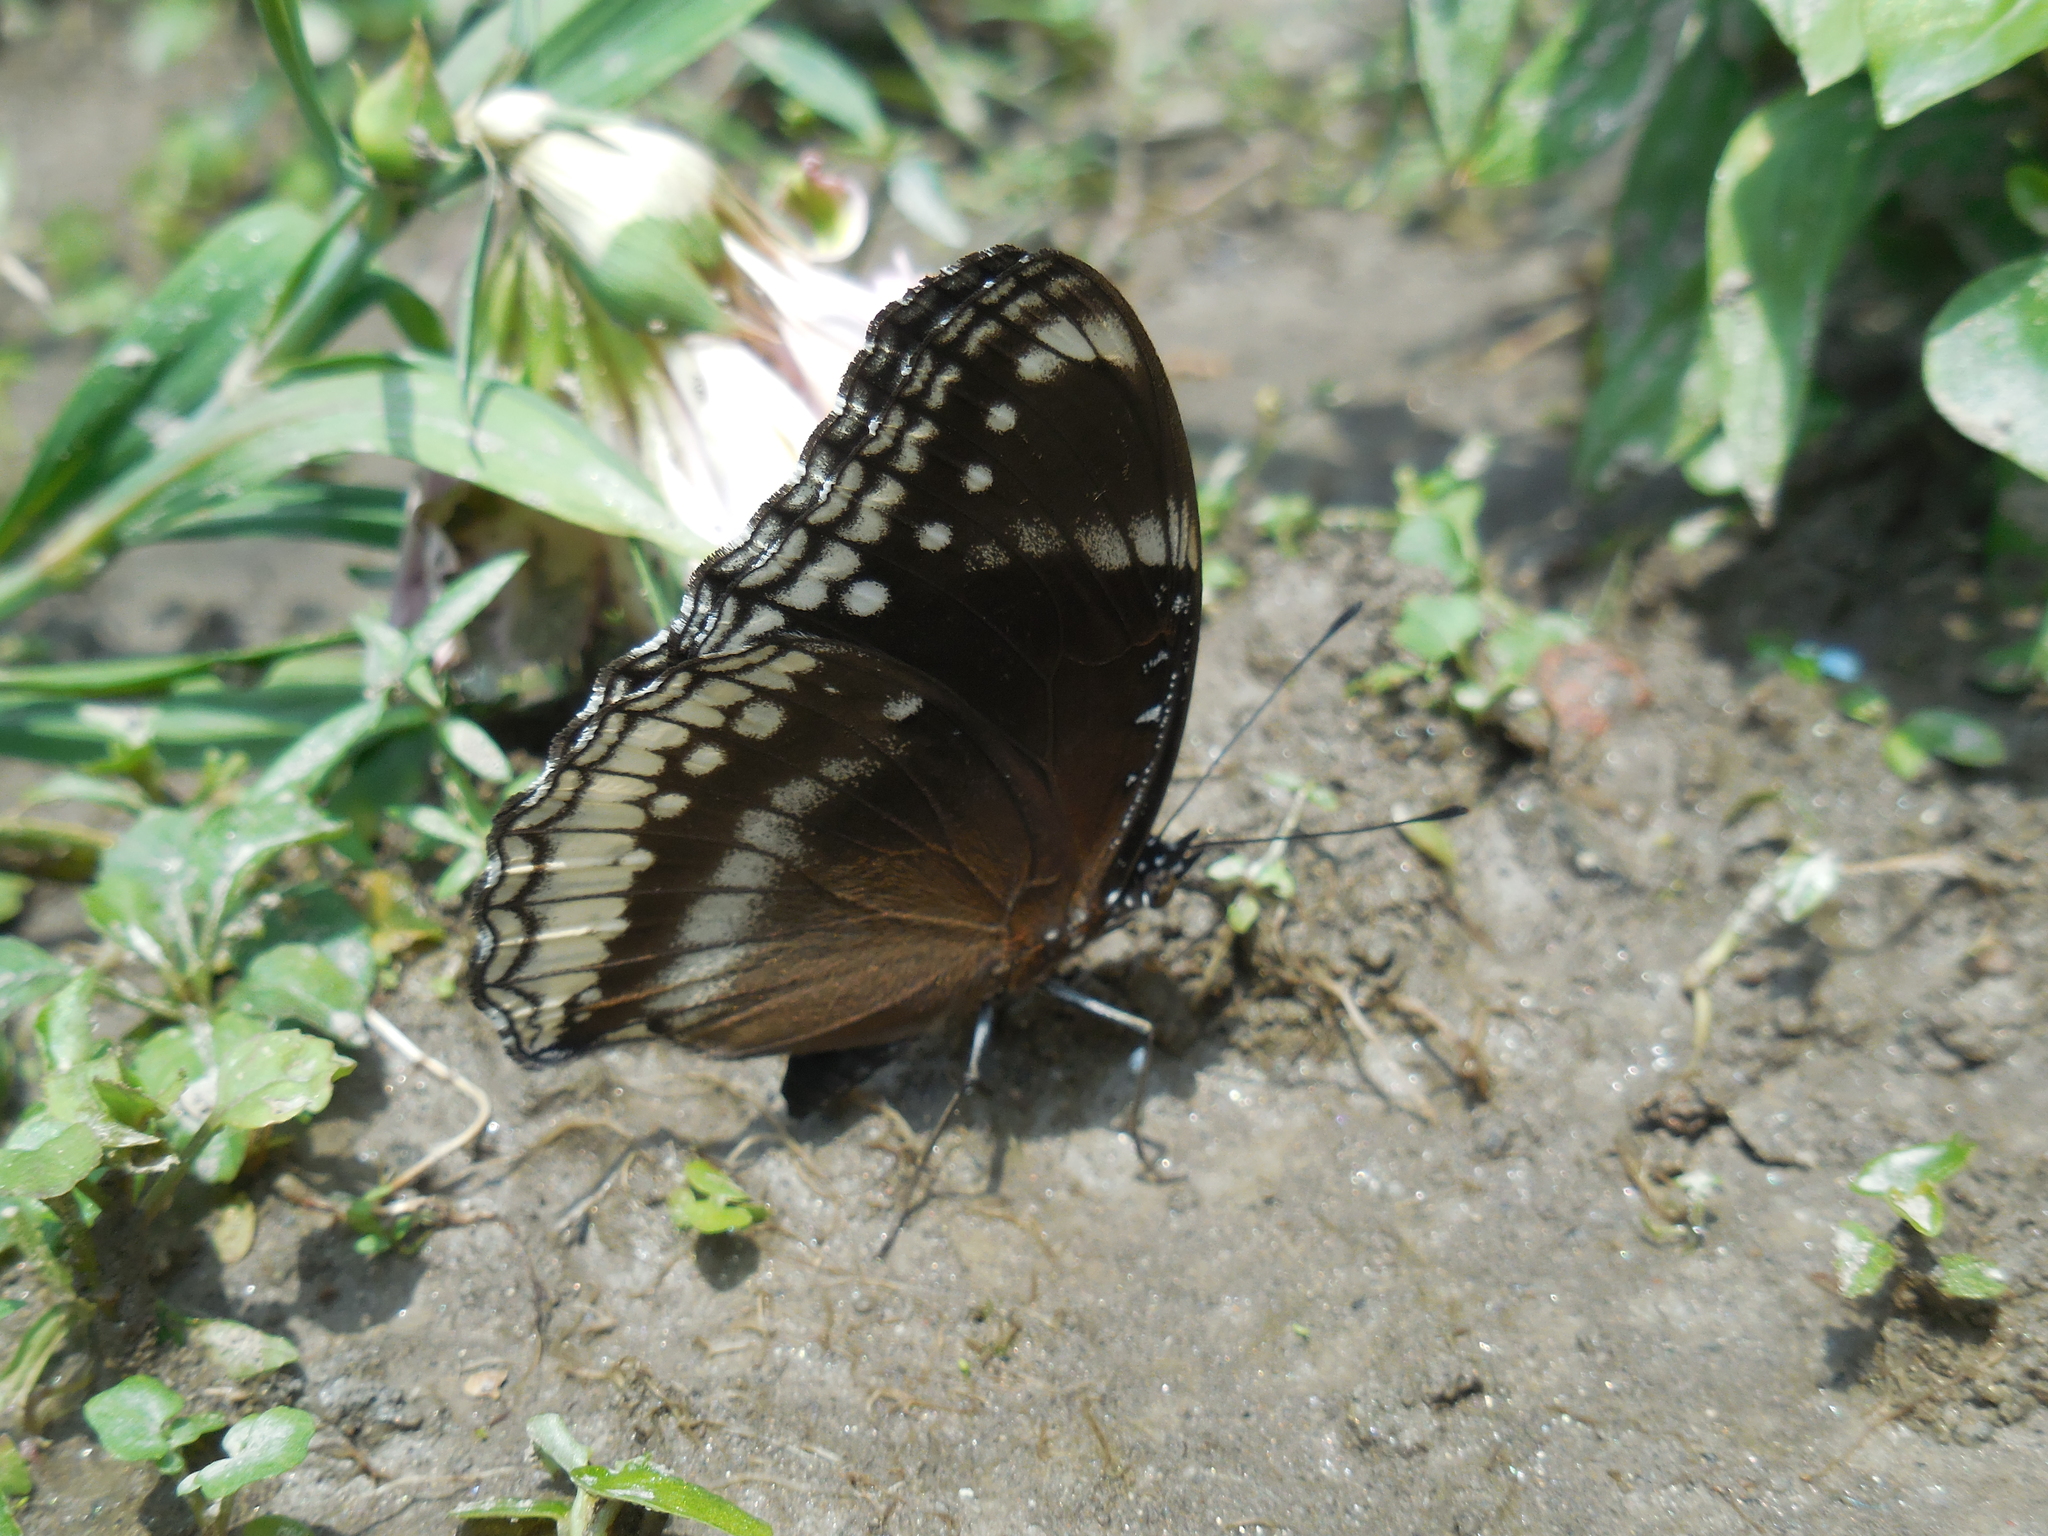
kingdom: Animalia
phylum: Arthropoda
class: Insecta
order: Lepidoptera
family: Nymphalidae
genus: Hypolimnas
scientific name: Hypolimnas bolina
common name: Great eggfly
